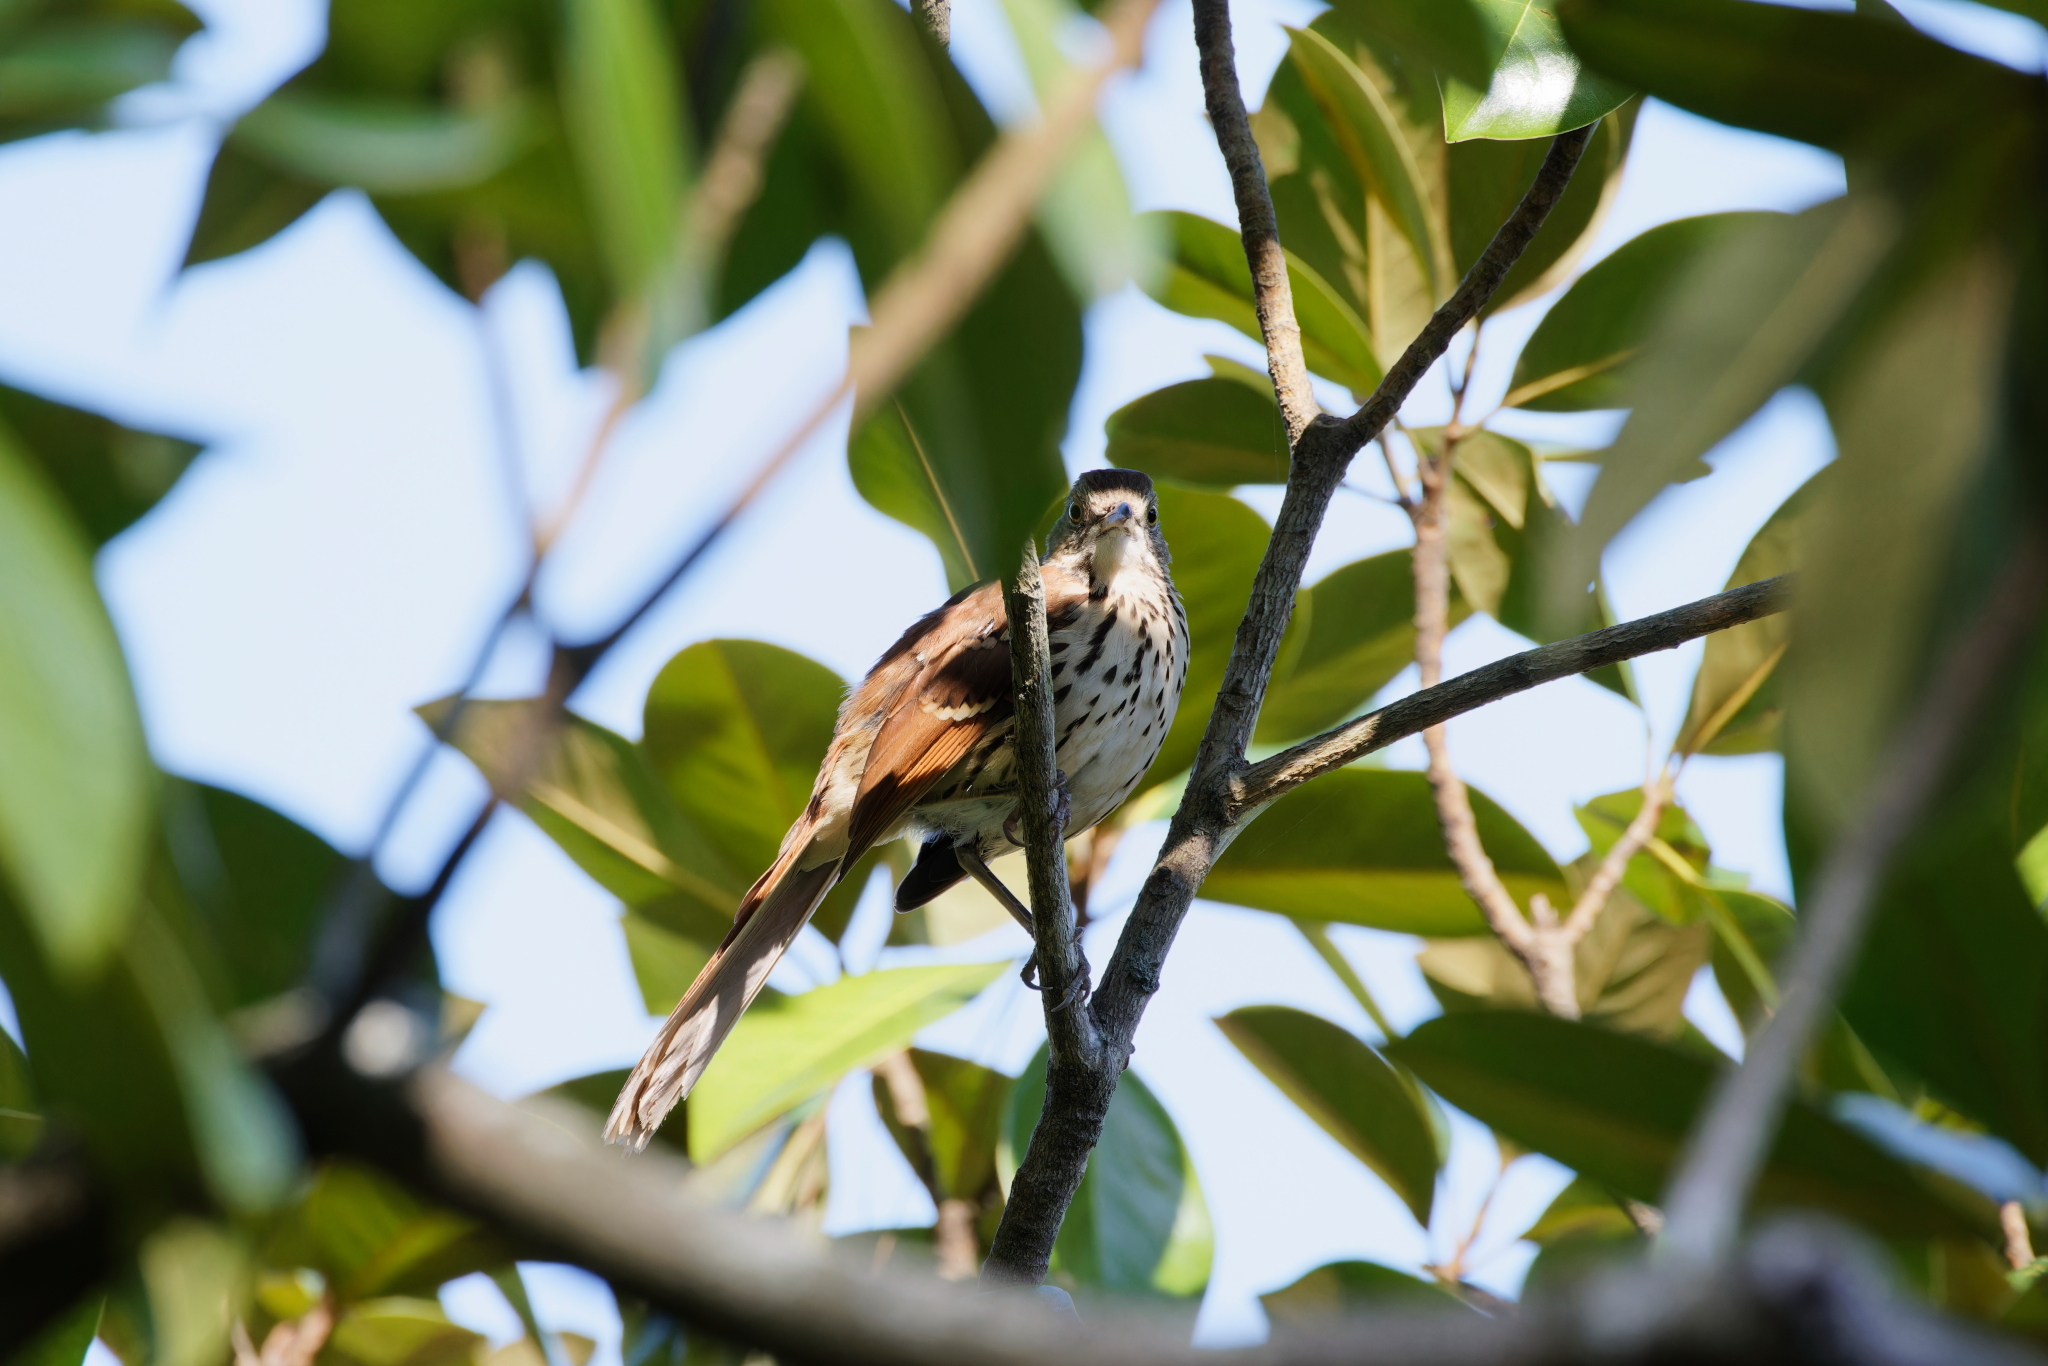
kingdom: Animalia
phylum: Chordata
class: Aves
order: Passeriformes
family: Mimidae
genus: Toxostoma
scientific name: Toxostoma rufum
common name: Brown thrasher
